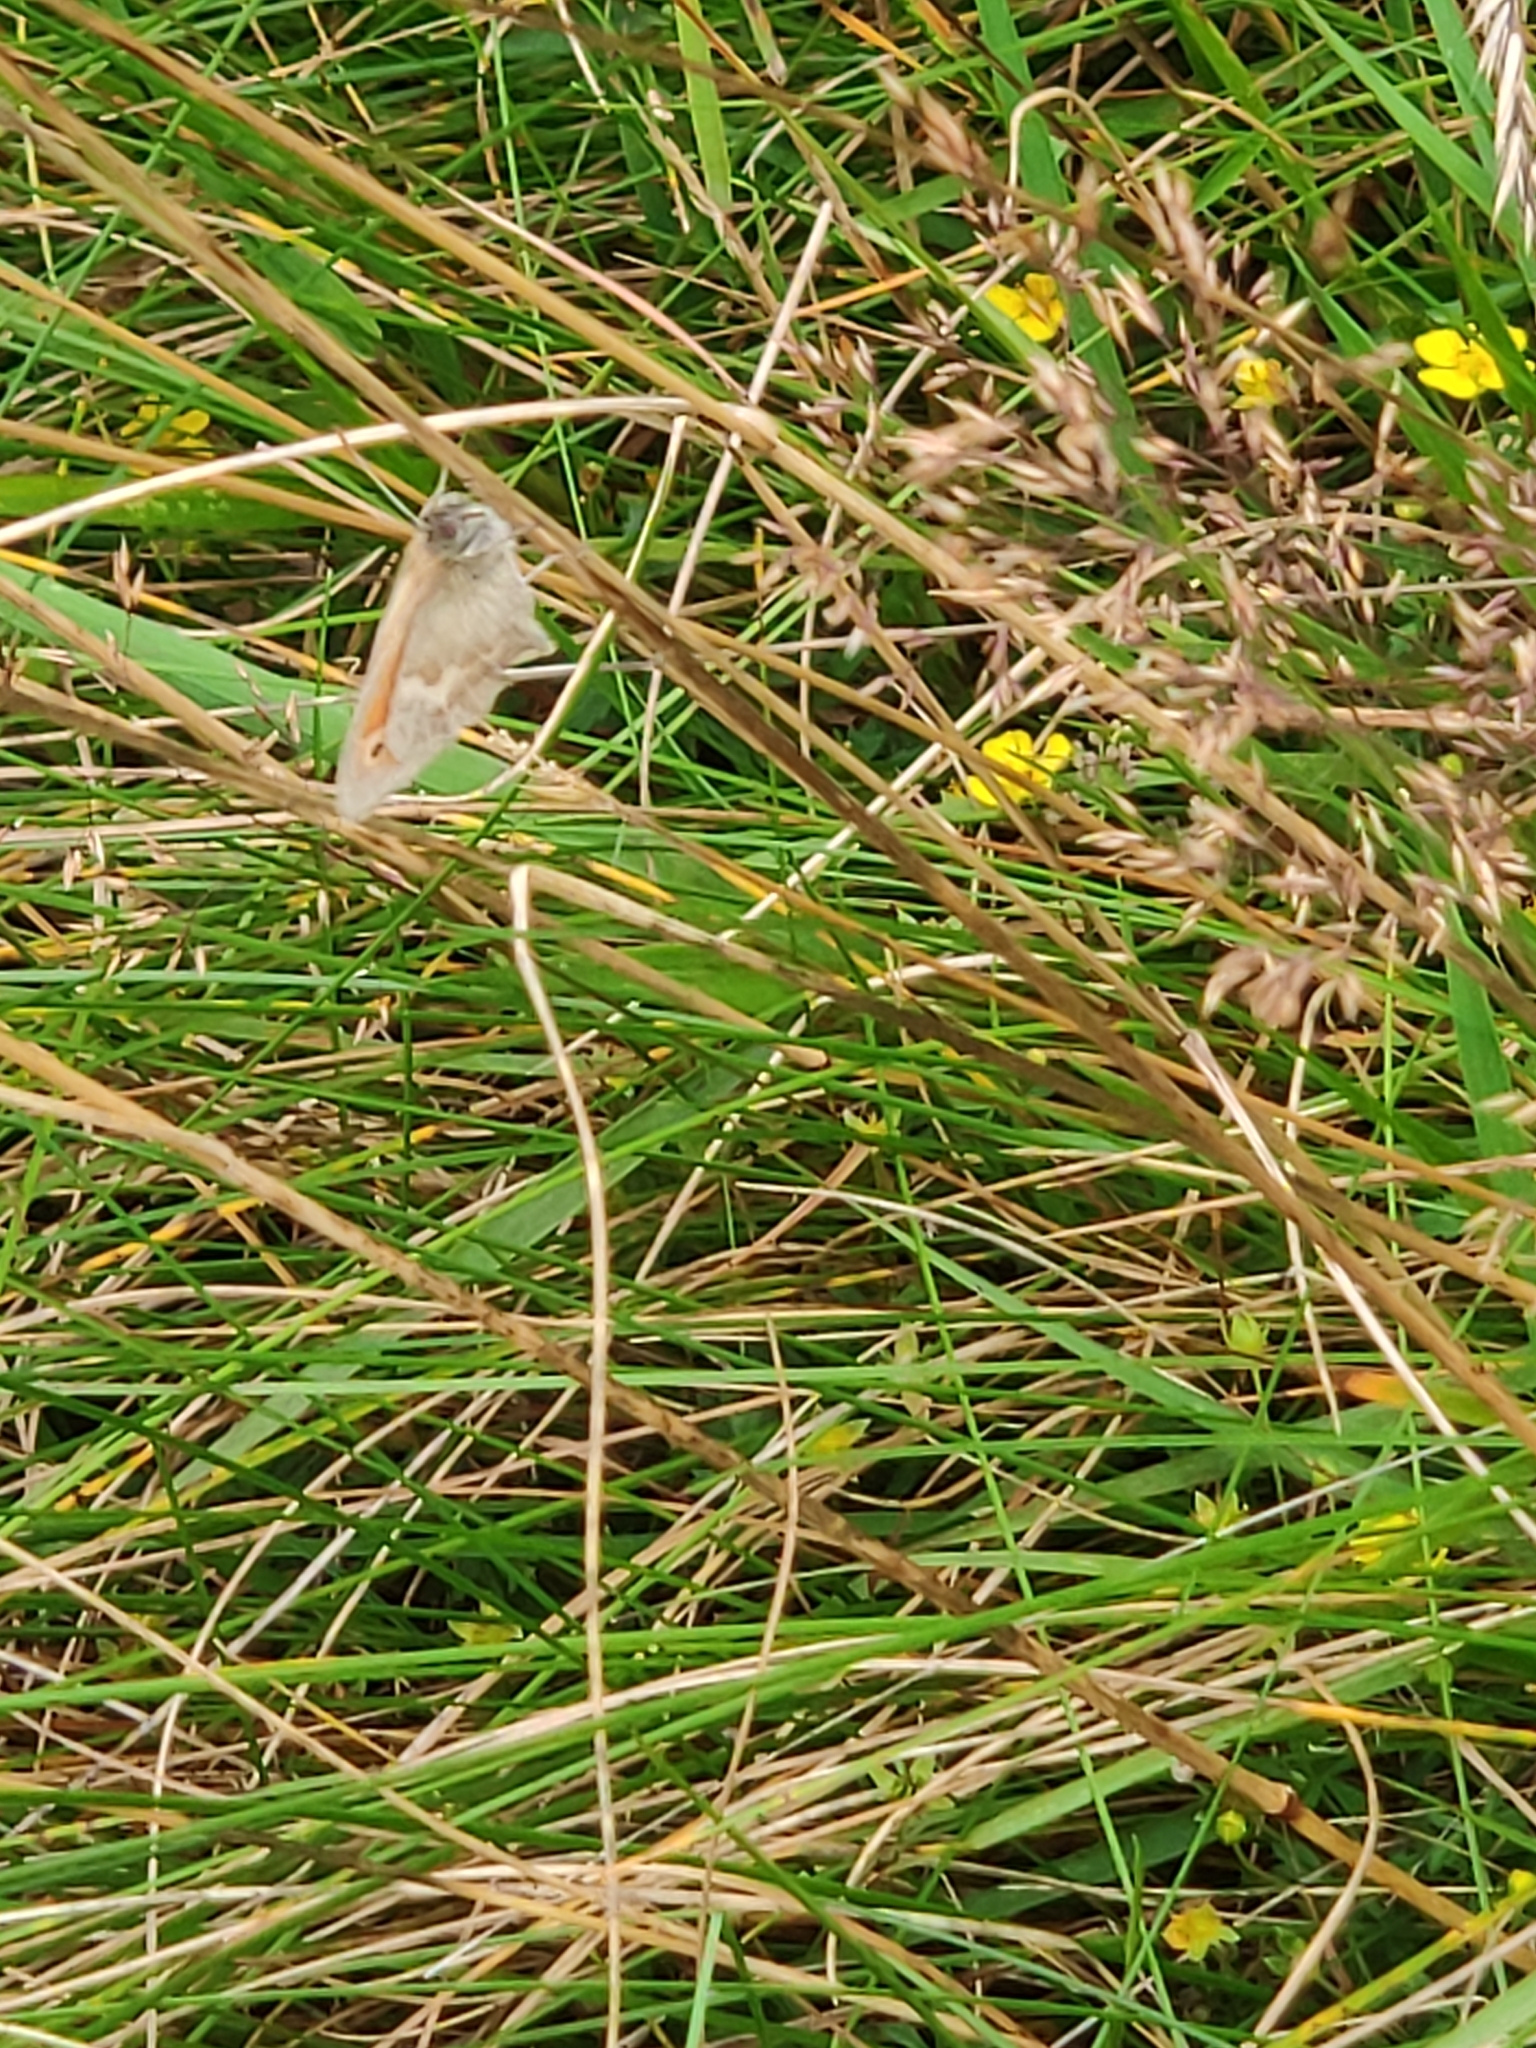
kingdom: Animalia
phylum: Arthropoda
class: Insecta
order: Lepidoptera
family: Nymphalidae
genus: Coenonympha
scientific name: Coenonympha pamphilus
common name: Small heath
